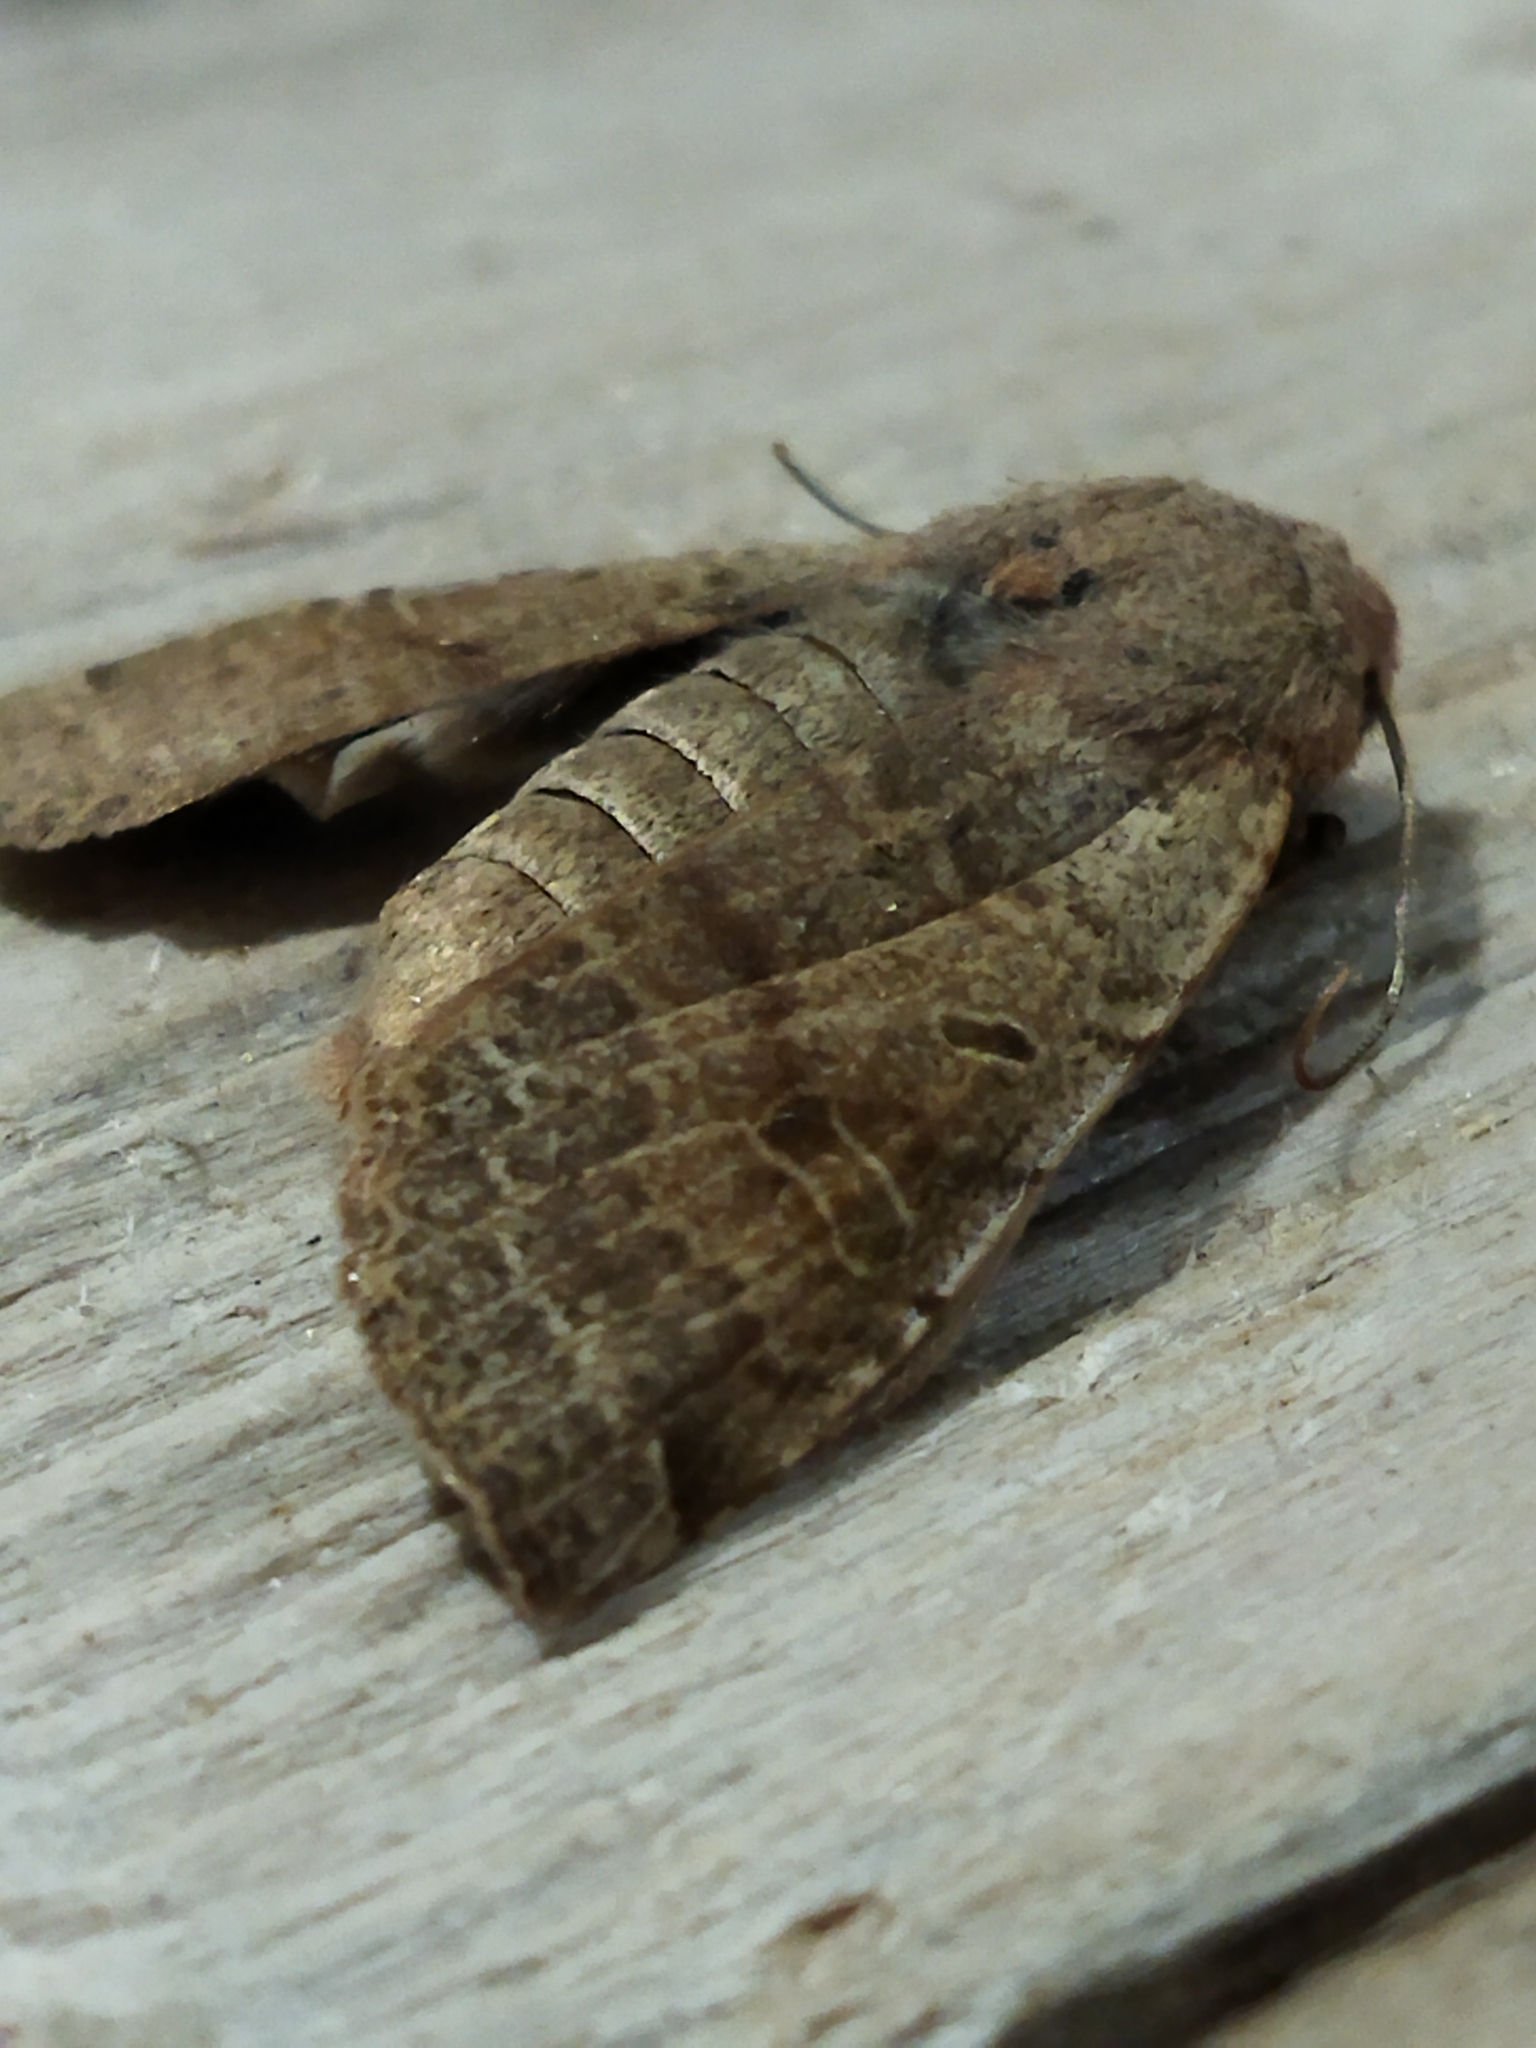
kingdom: Animalia
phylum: Arthropoda
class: Insecta
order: Lepidoptera
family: Noctuidae
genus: Agrochola
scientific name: Agrochola lychnidis
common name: Beaded chestnut
